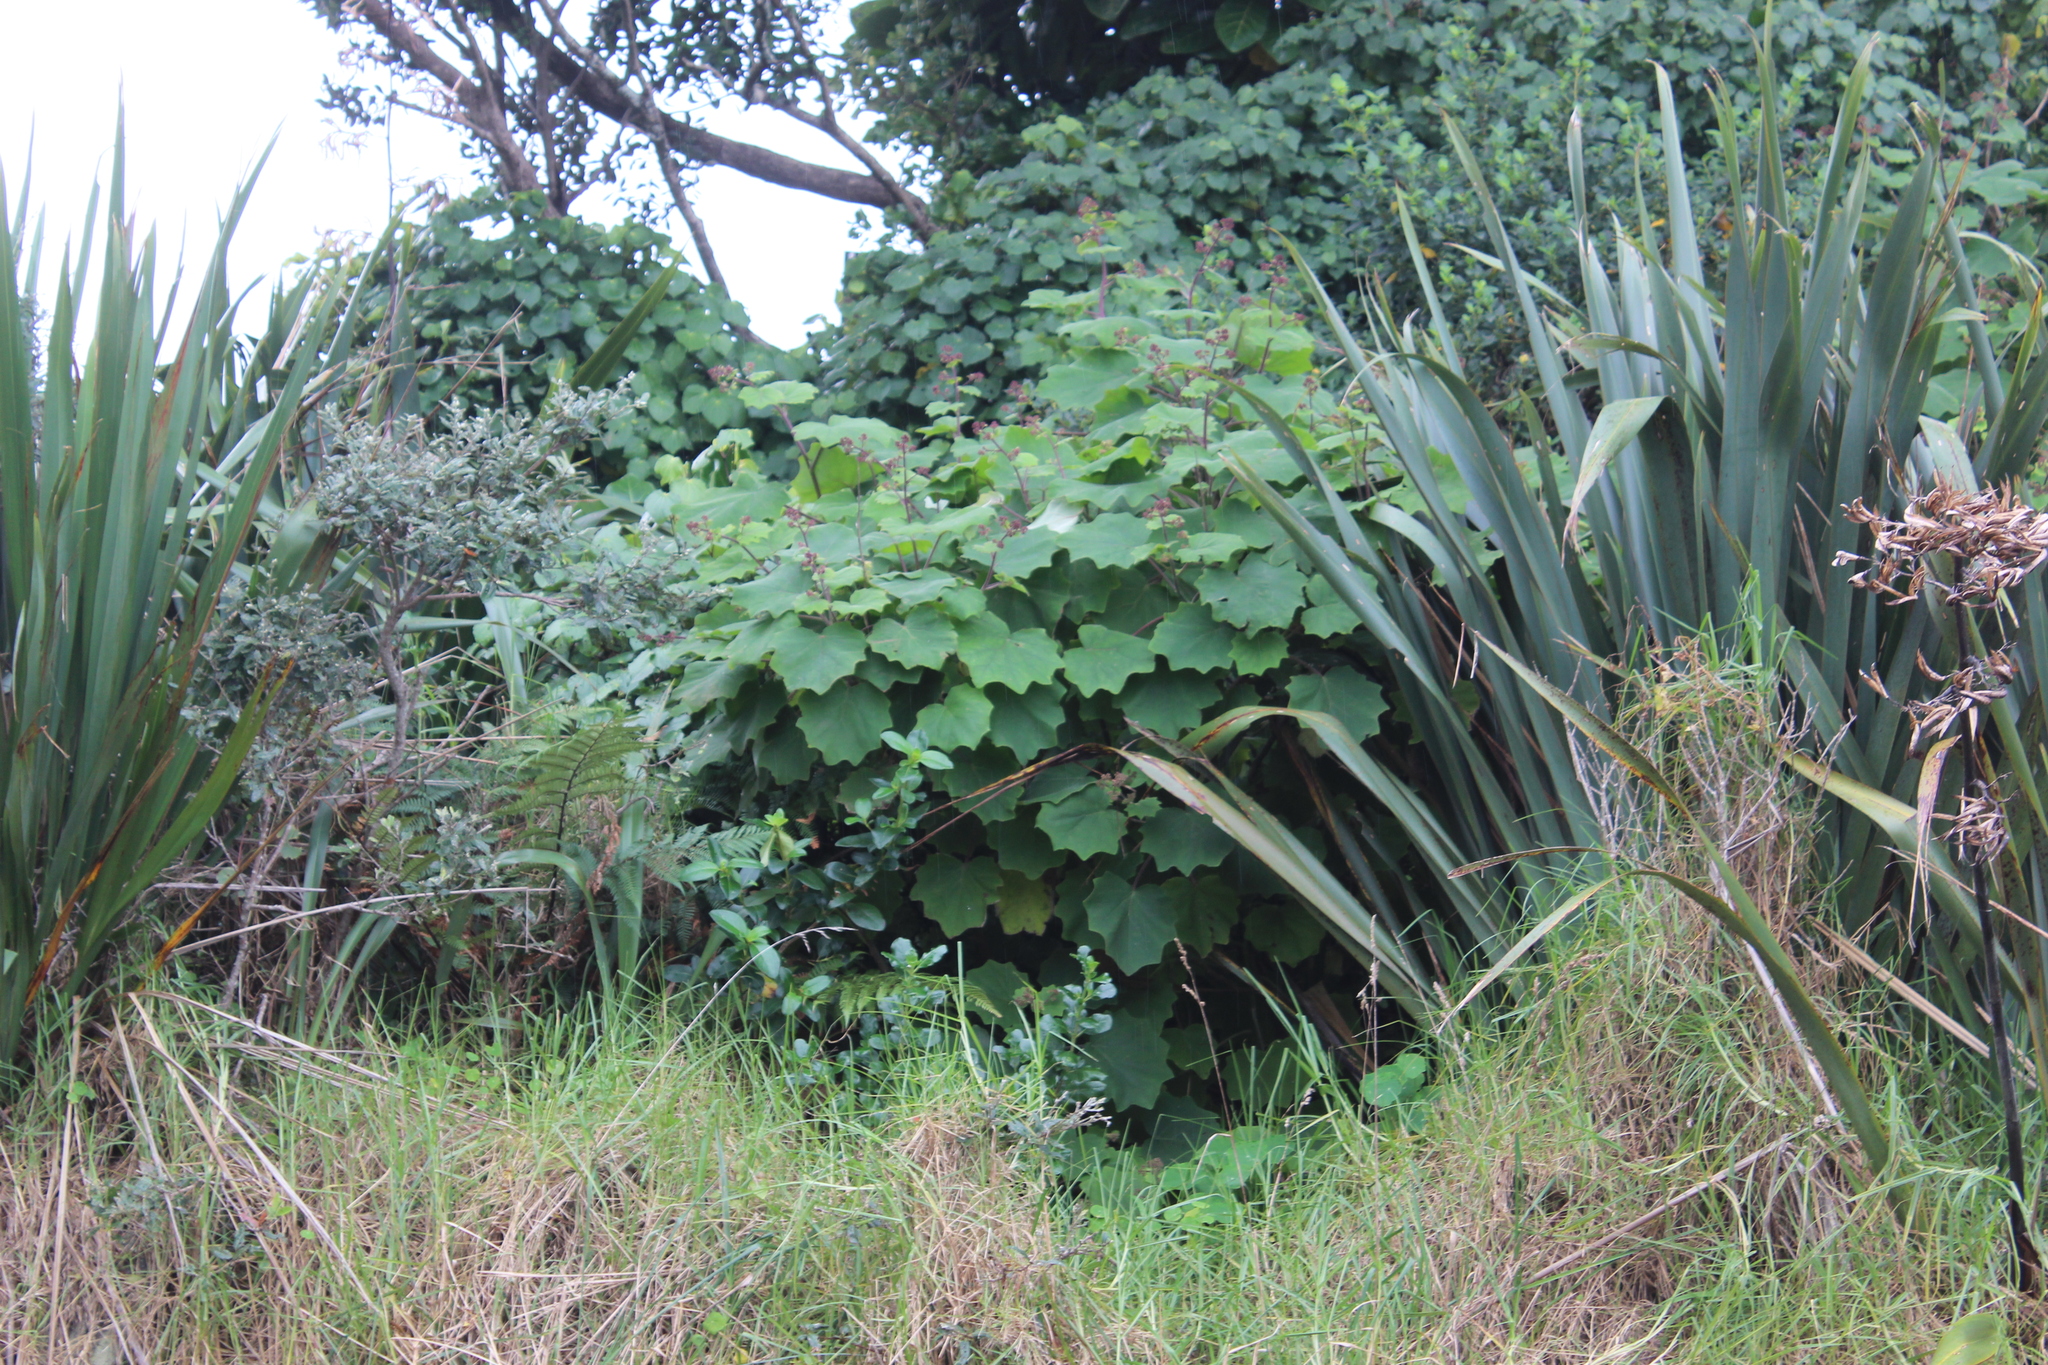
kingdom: Plantae
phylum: Tracheophyta
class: Magnoliopsida
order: Asterales
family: Asteraceae
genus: Roldana
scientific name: Roldana petasitis
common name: California-geranium
